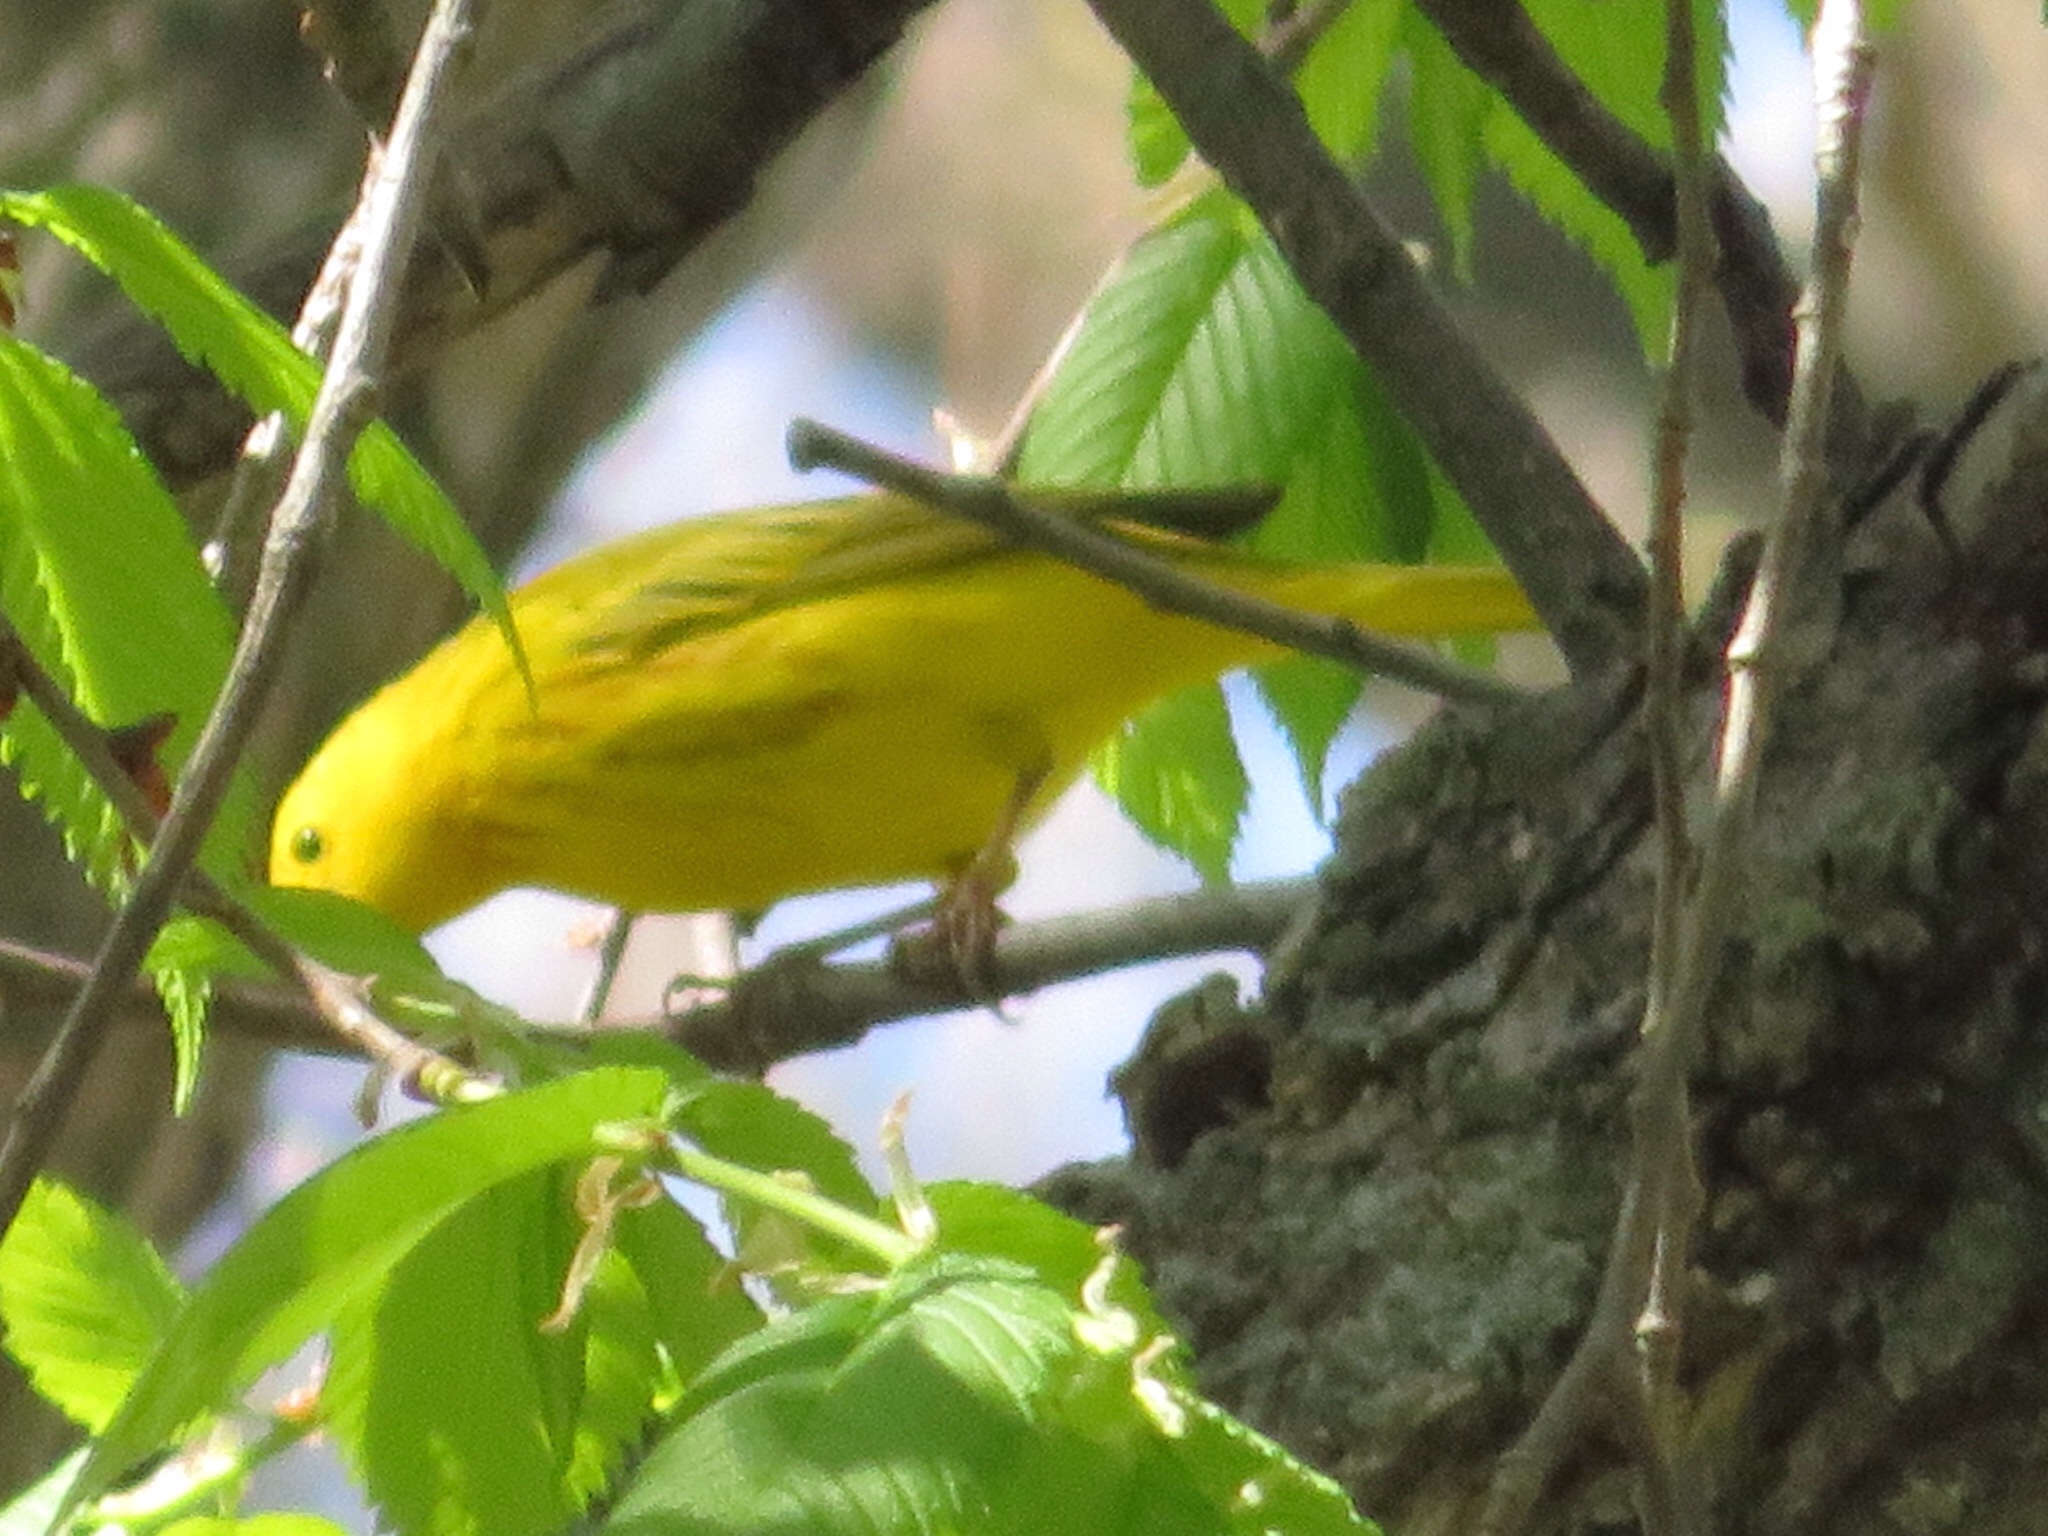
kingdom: Animalia
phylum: Chordata
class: Aves
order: Passeriformes
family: Parulidae
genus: Setophaga
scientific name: Setophaga petechia
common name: Yellow warbler
